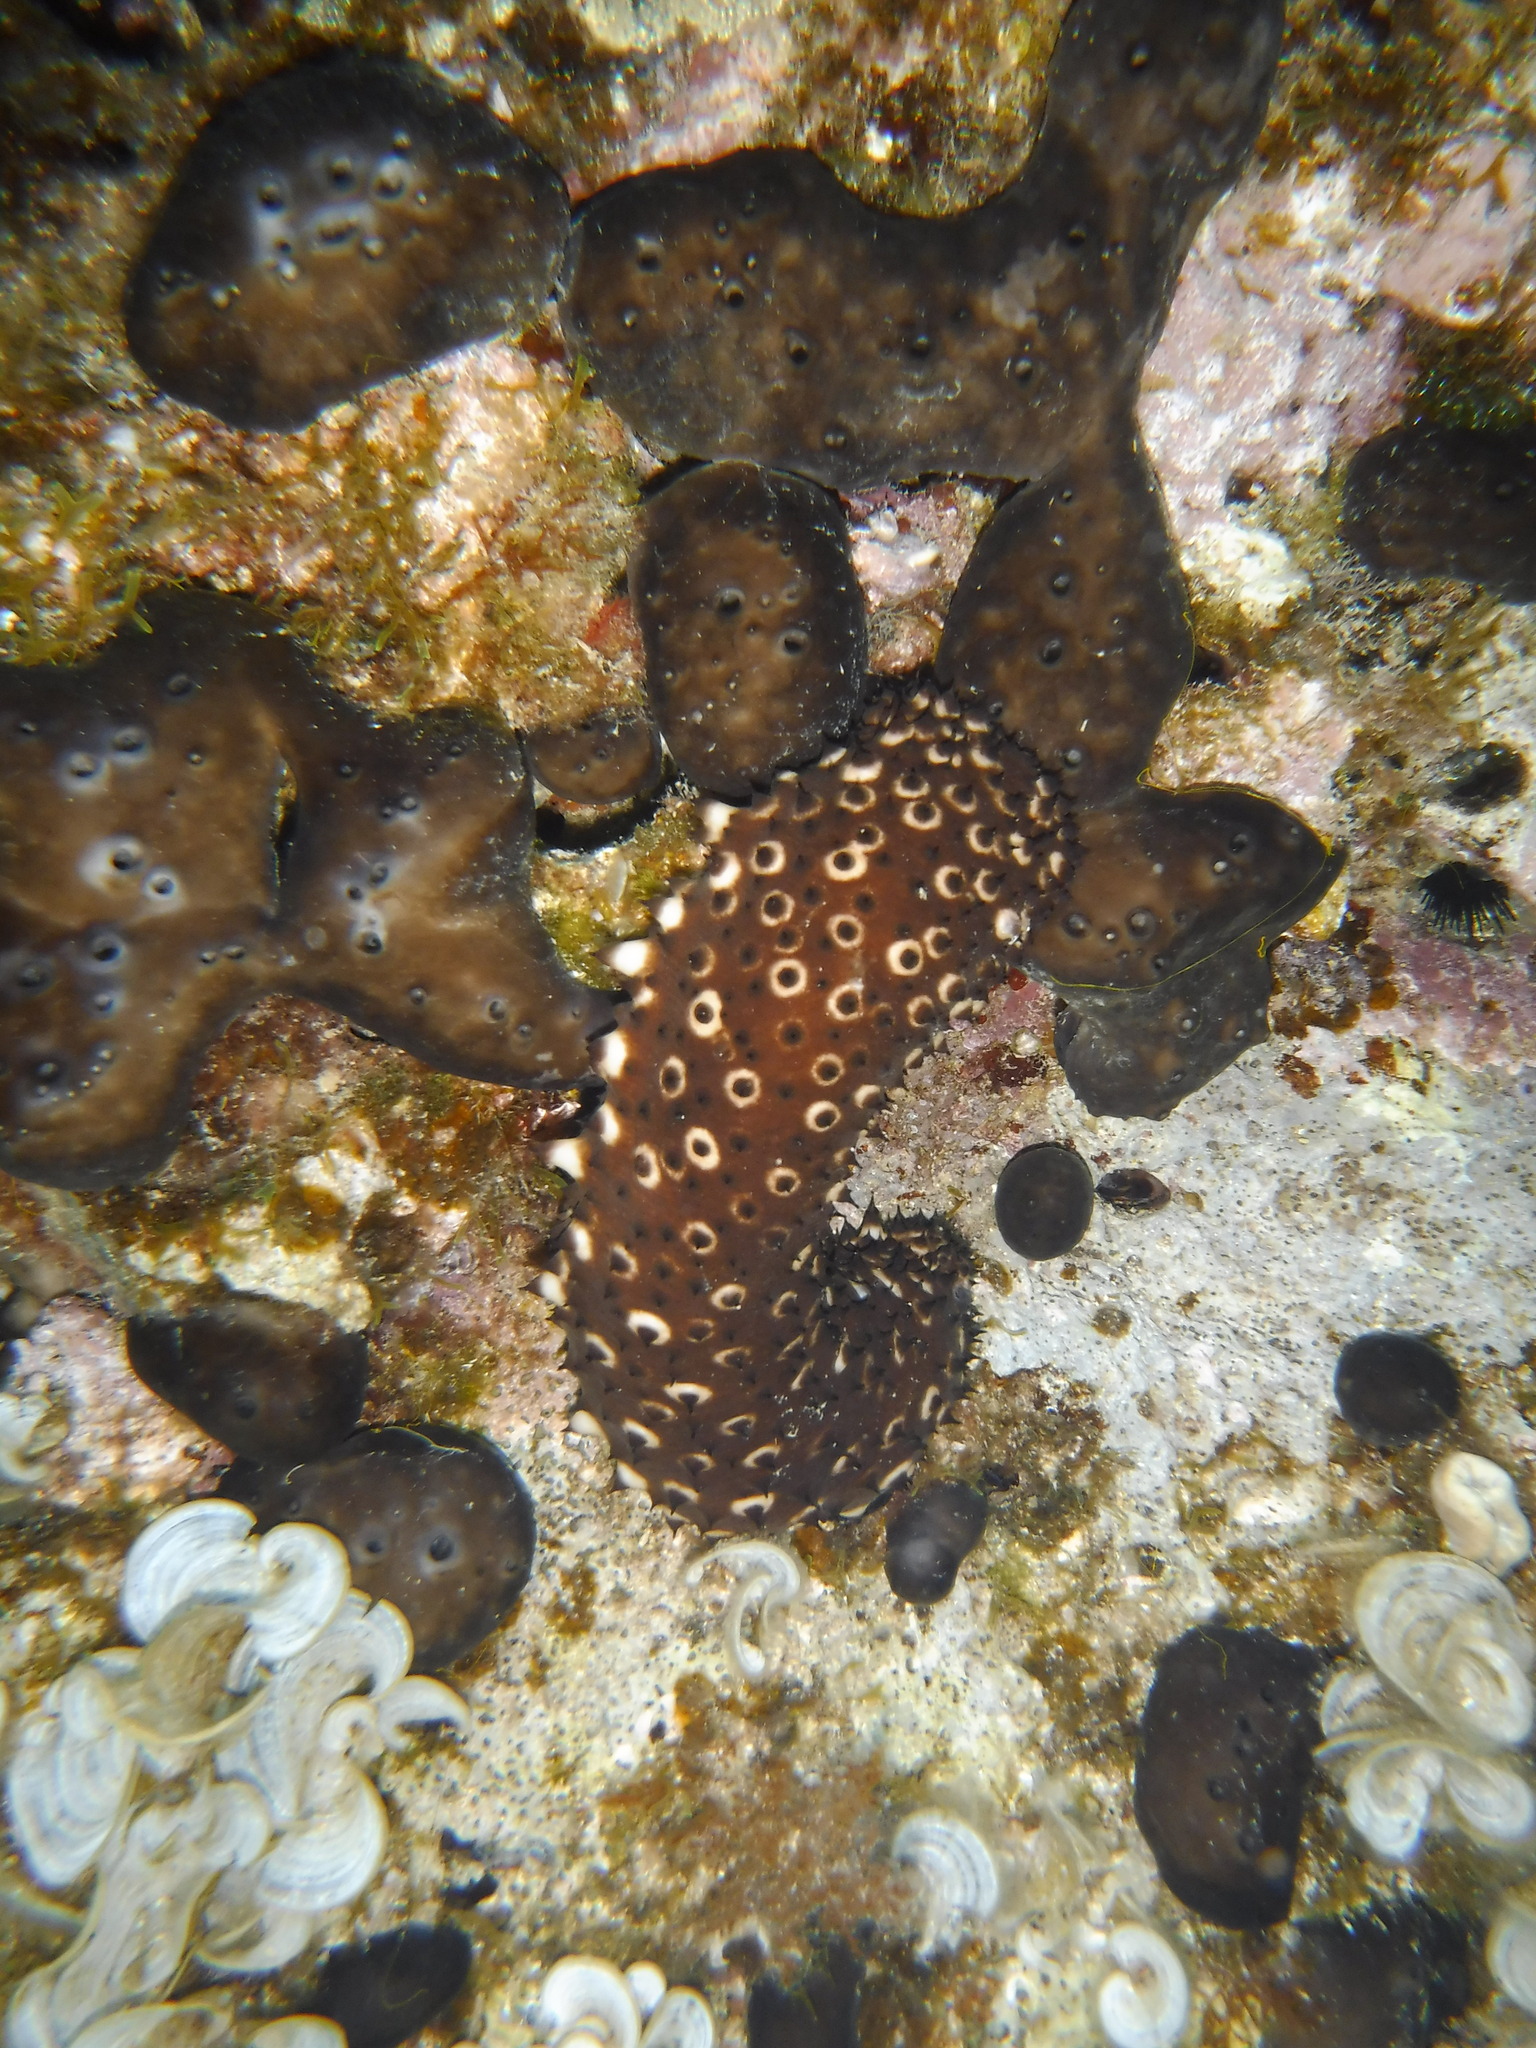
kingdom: Animalia
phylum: Echinodermata
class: Holothuroidea
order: Holothuriida
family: Holothuriidae
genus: Holothuria
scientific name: Holothuria sanctori
